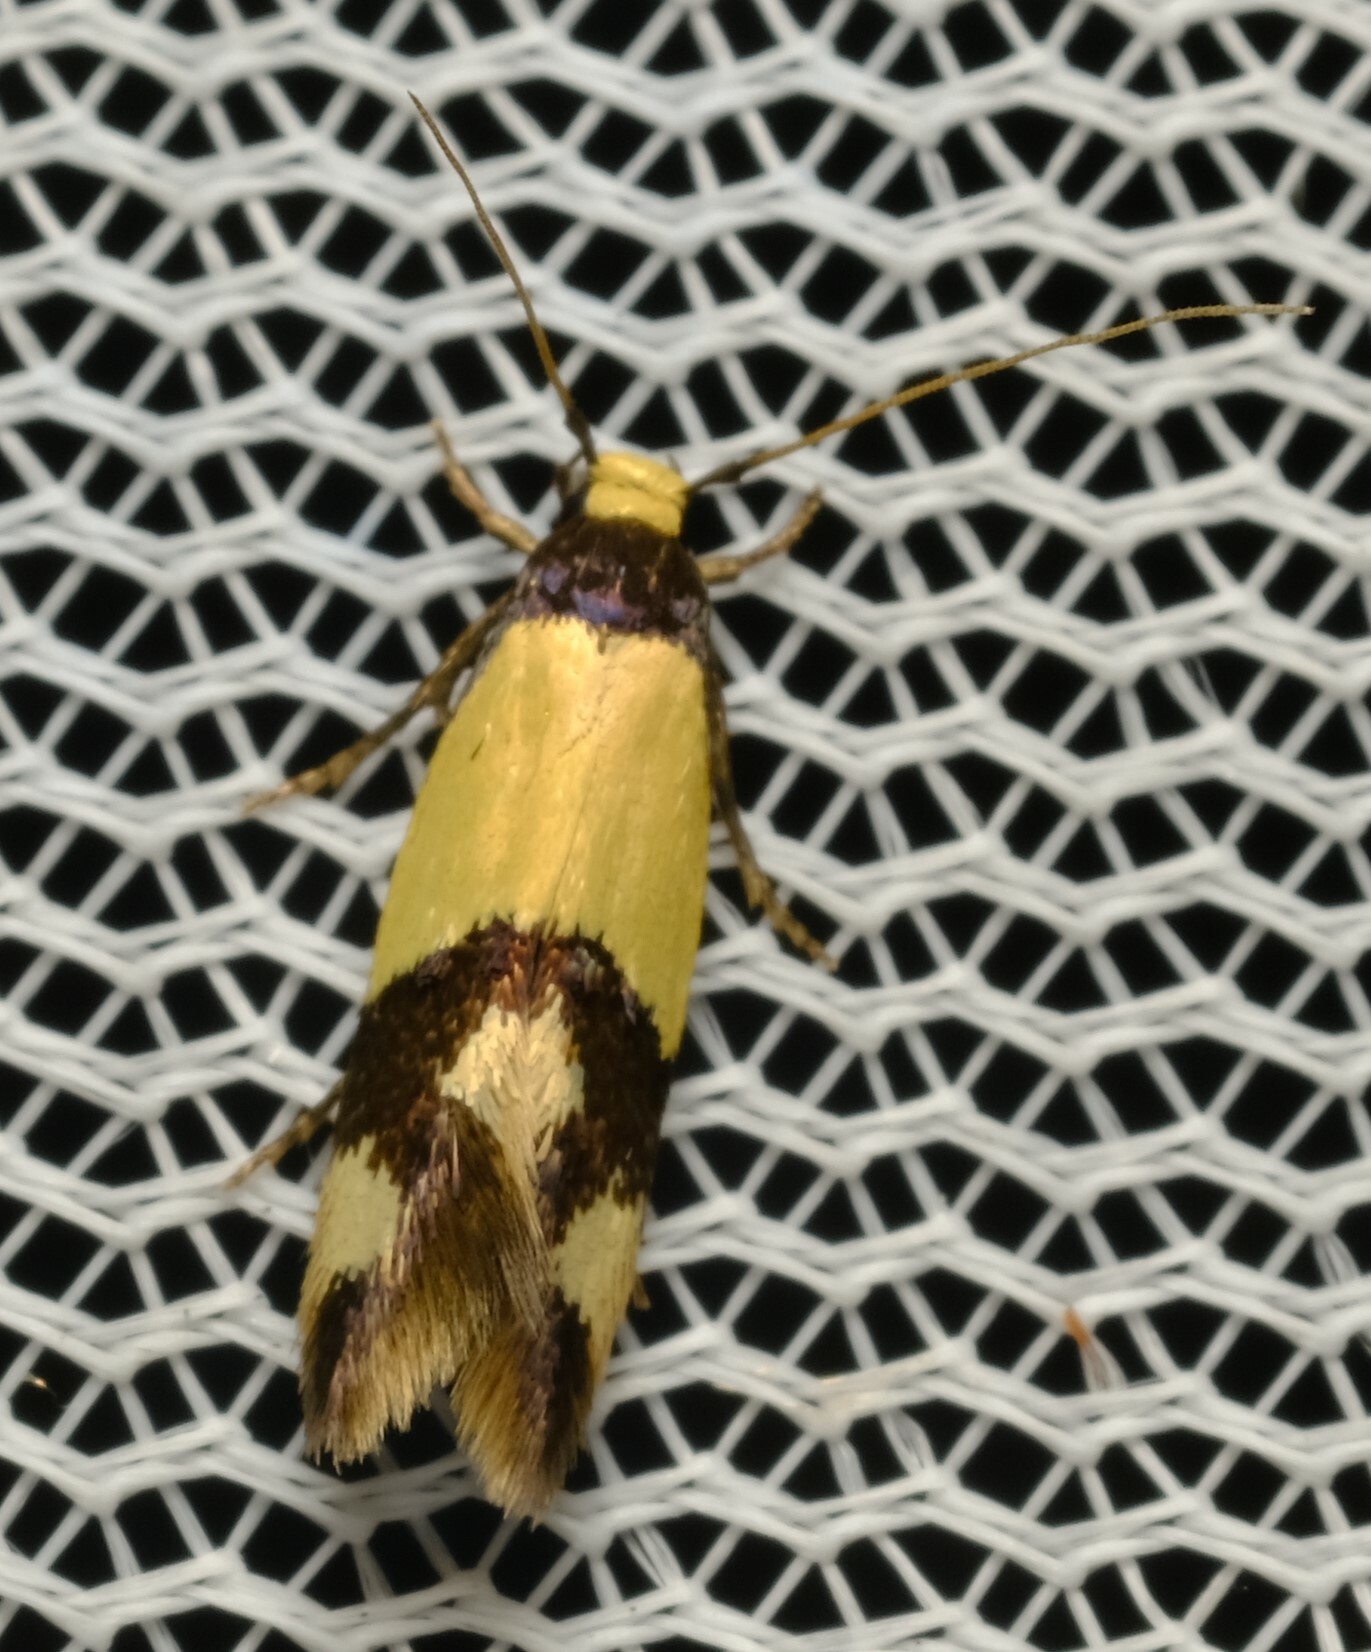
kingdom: Animalia
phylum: Arthropoda
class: Insecta
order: Lepidoptera
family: Tineidae
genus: Opogona
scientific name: Opogona comptella
